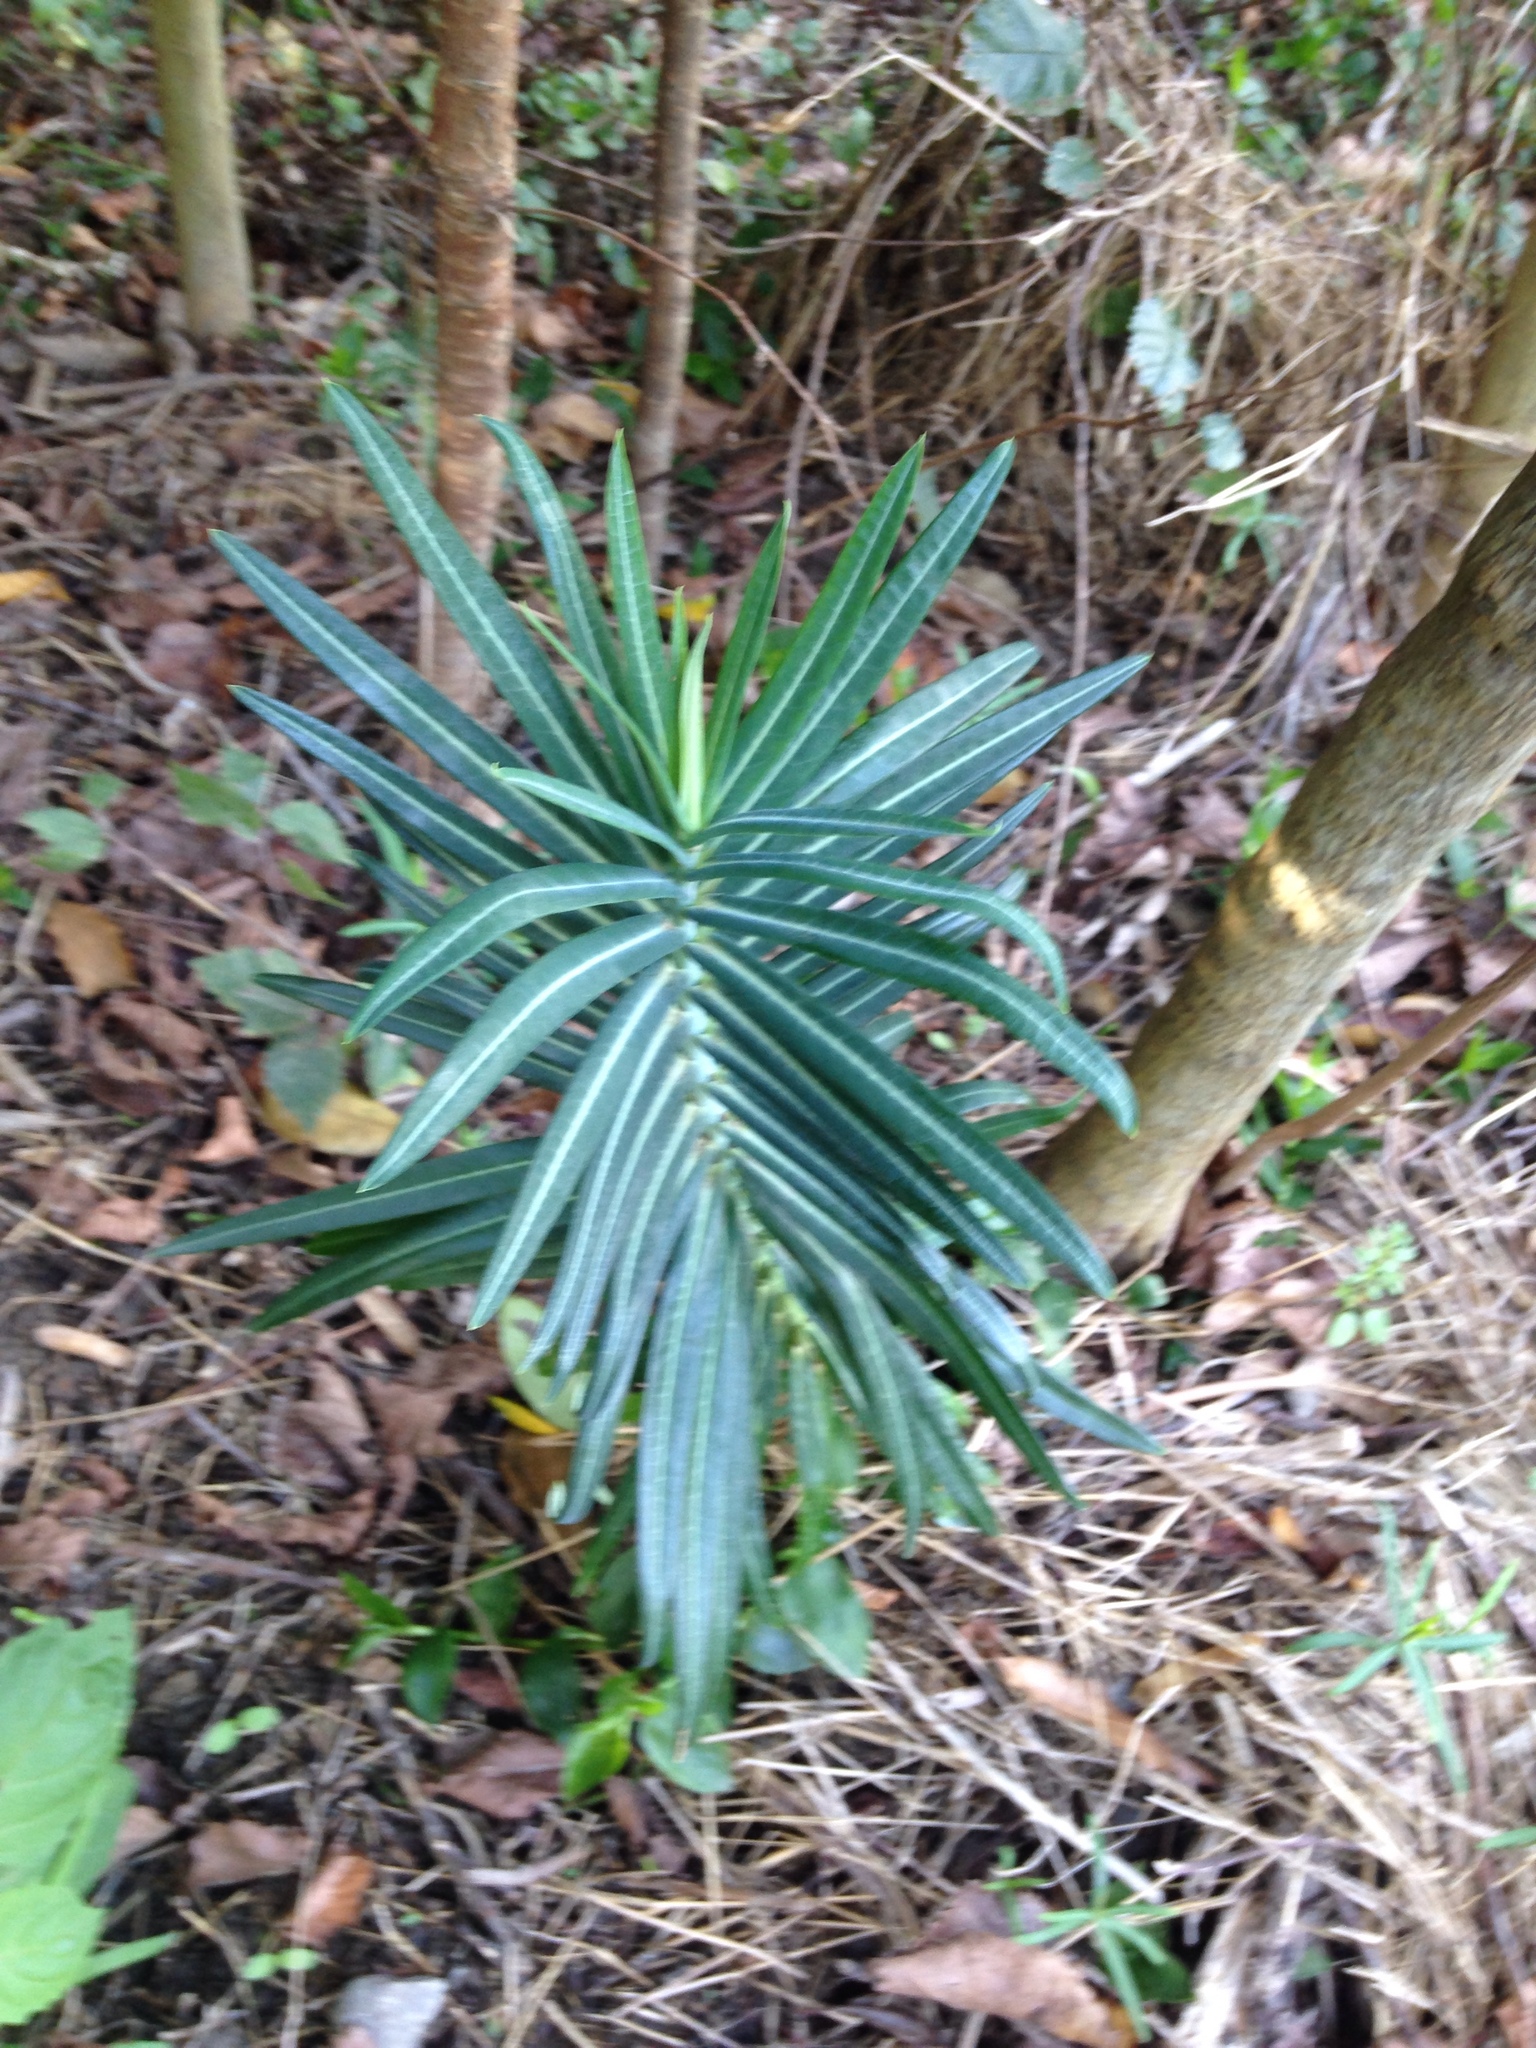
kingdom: Plantae
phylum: Tracheophyta
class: Magnoliopsida
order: Malpighiales
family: Euphorbiaceae
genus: Euphorbia
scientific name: Euphorbia lathyris
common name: Caper spurge
